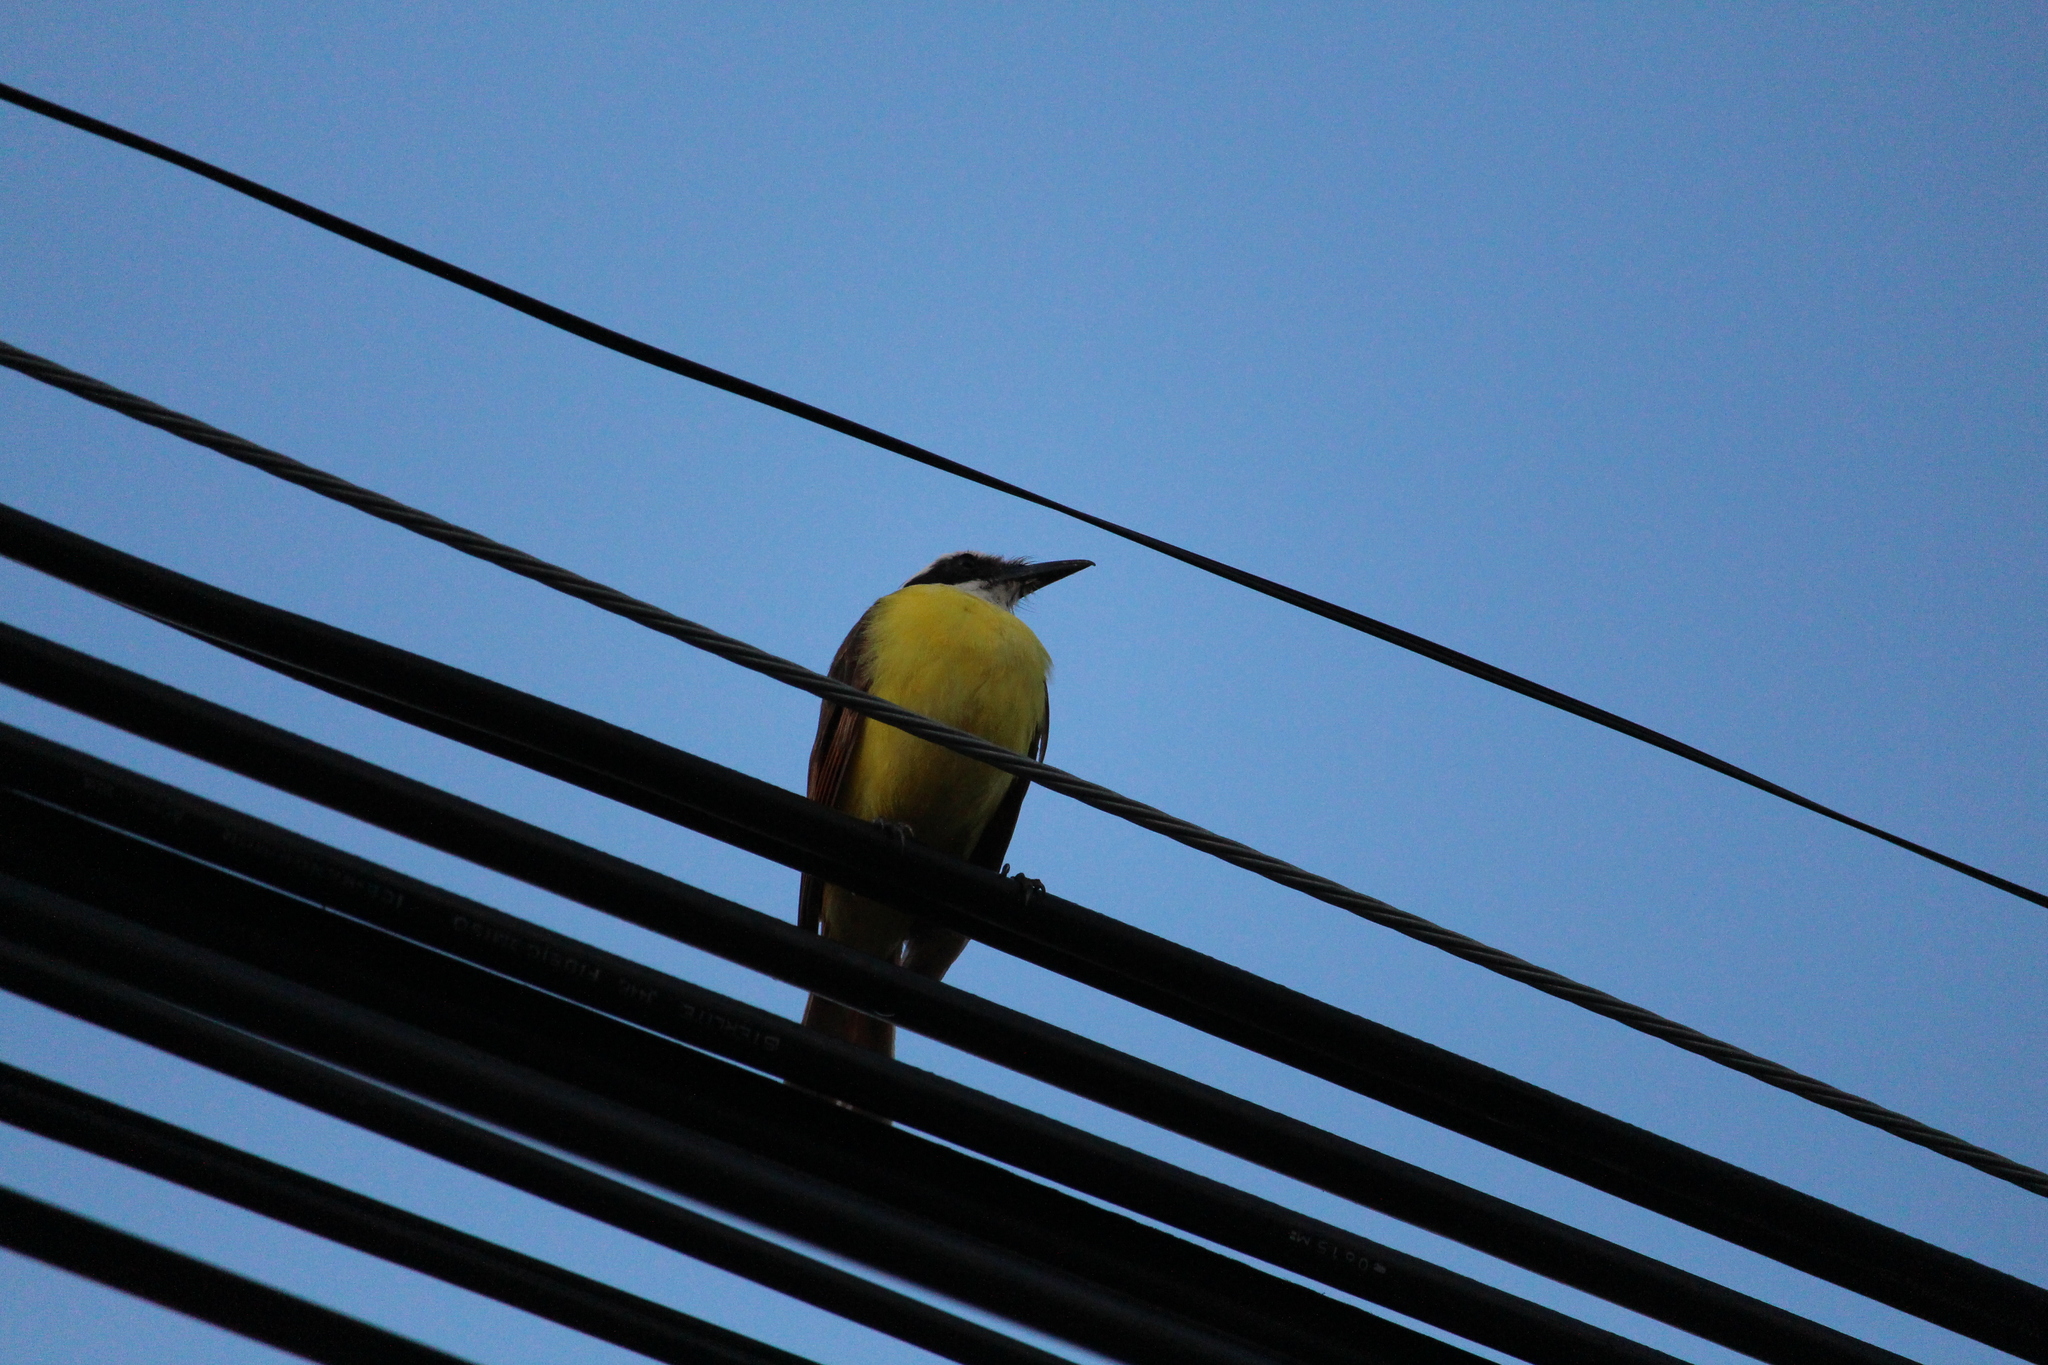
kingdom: Animalia
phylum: Chordata
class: Aves
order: Passeriformes
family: Tyrannidae
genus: Pitangus
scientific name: Pitangus sulphuratus
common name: Great kiskadee
